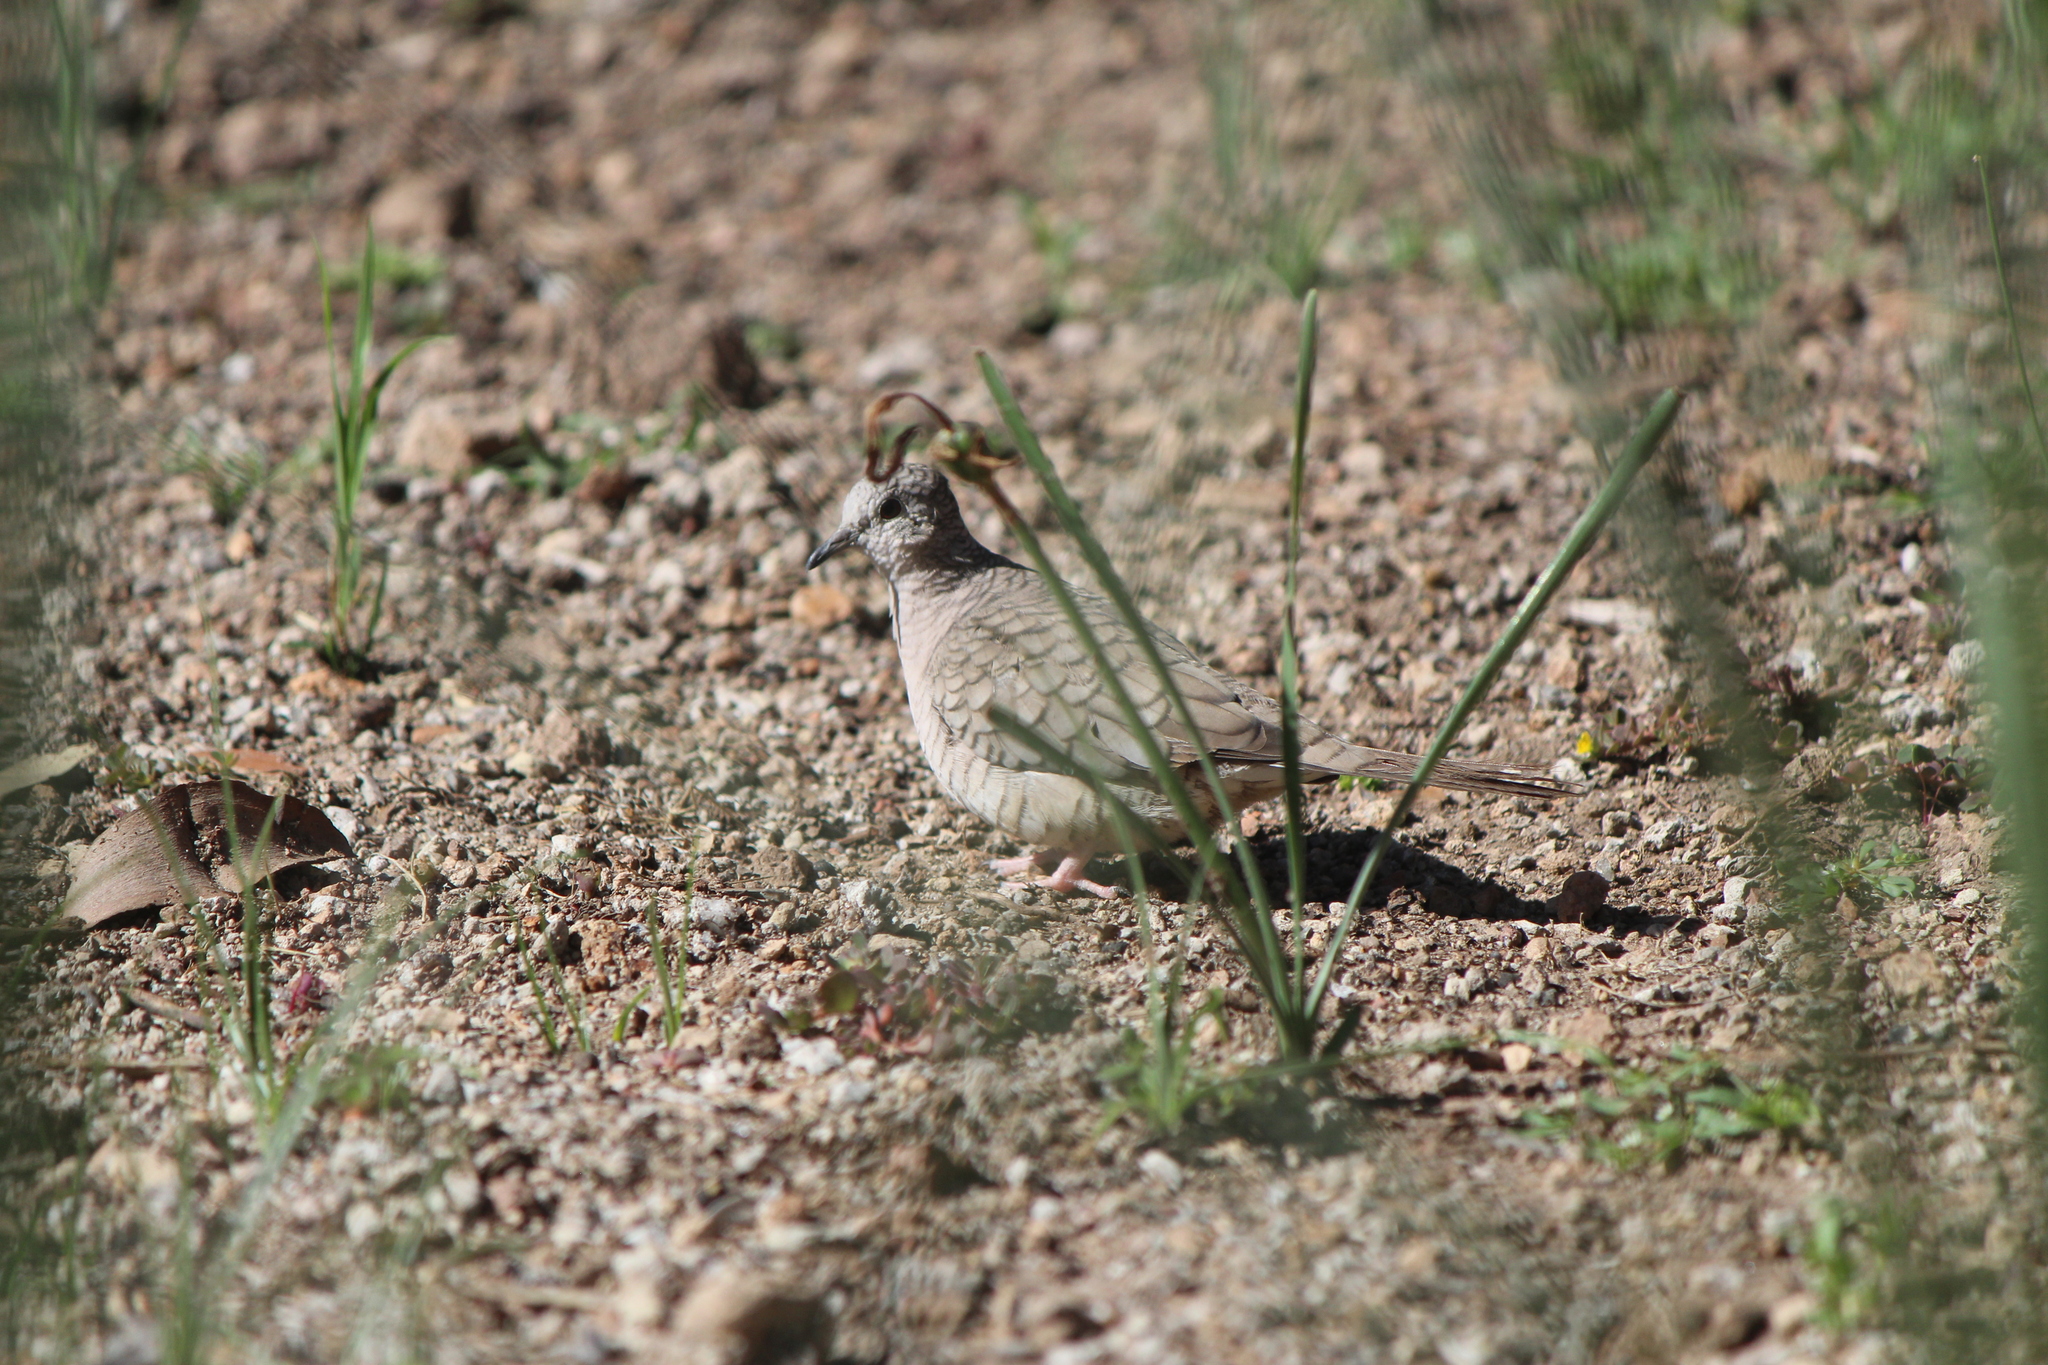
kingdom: Animalia
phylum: Chordata
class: Aves
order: Columbiformes
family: Columbidae
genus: Columbina
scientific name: Columbina inca
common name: Inca dove
